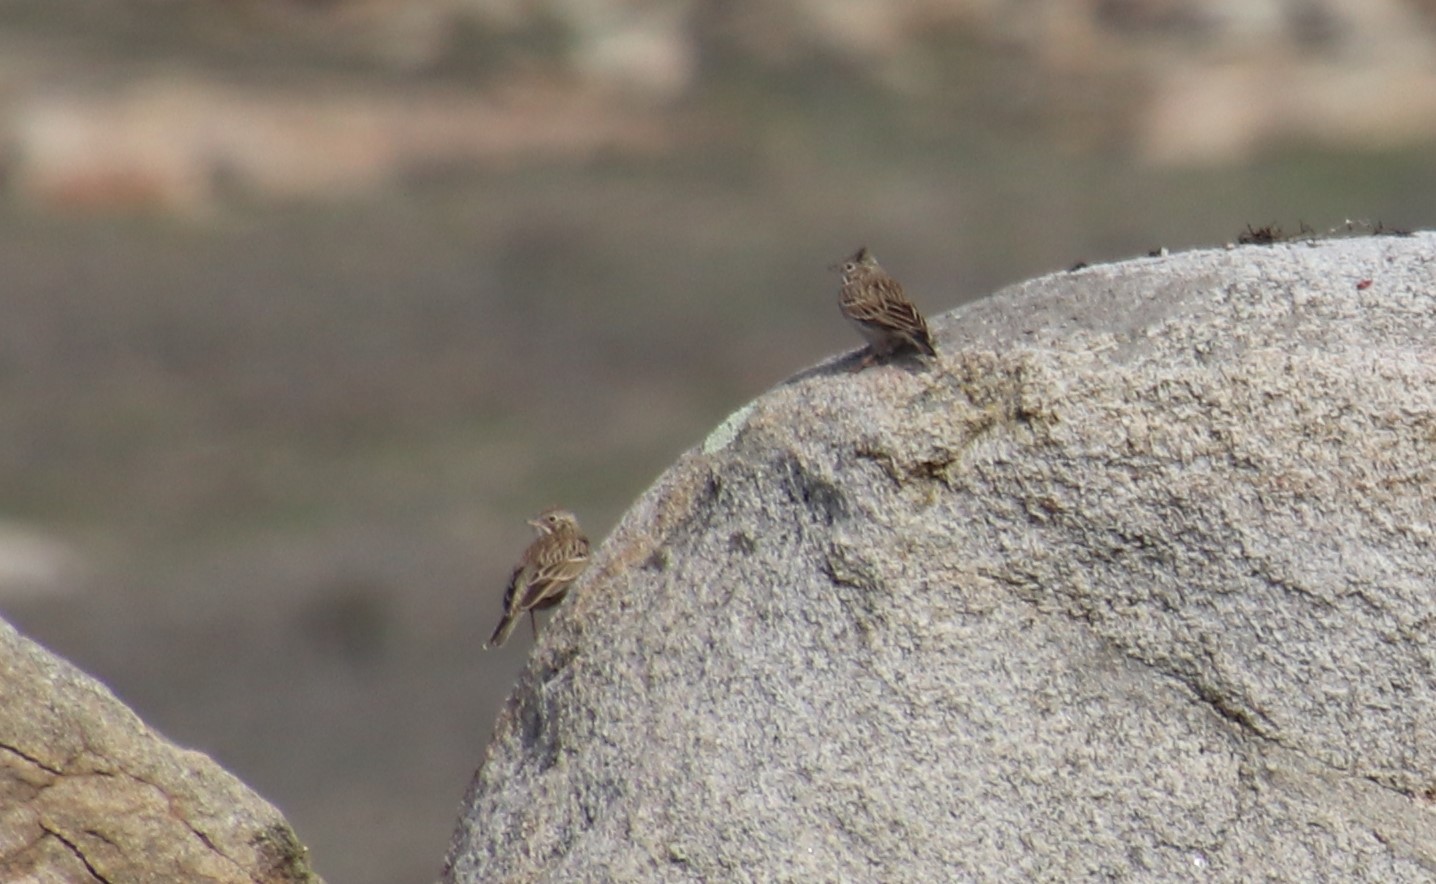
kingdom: Animalia
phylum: Chordata
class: Aves
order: Passeriformes
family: Passerellidae
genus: Pooecetes
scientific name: Pooecetes gramineus
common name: Vesper sparrow
